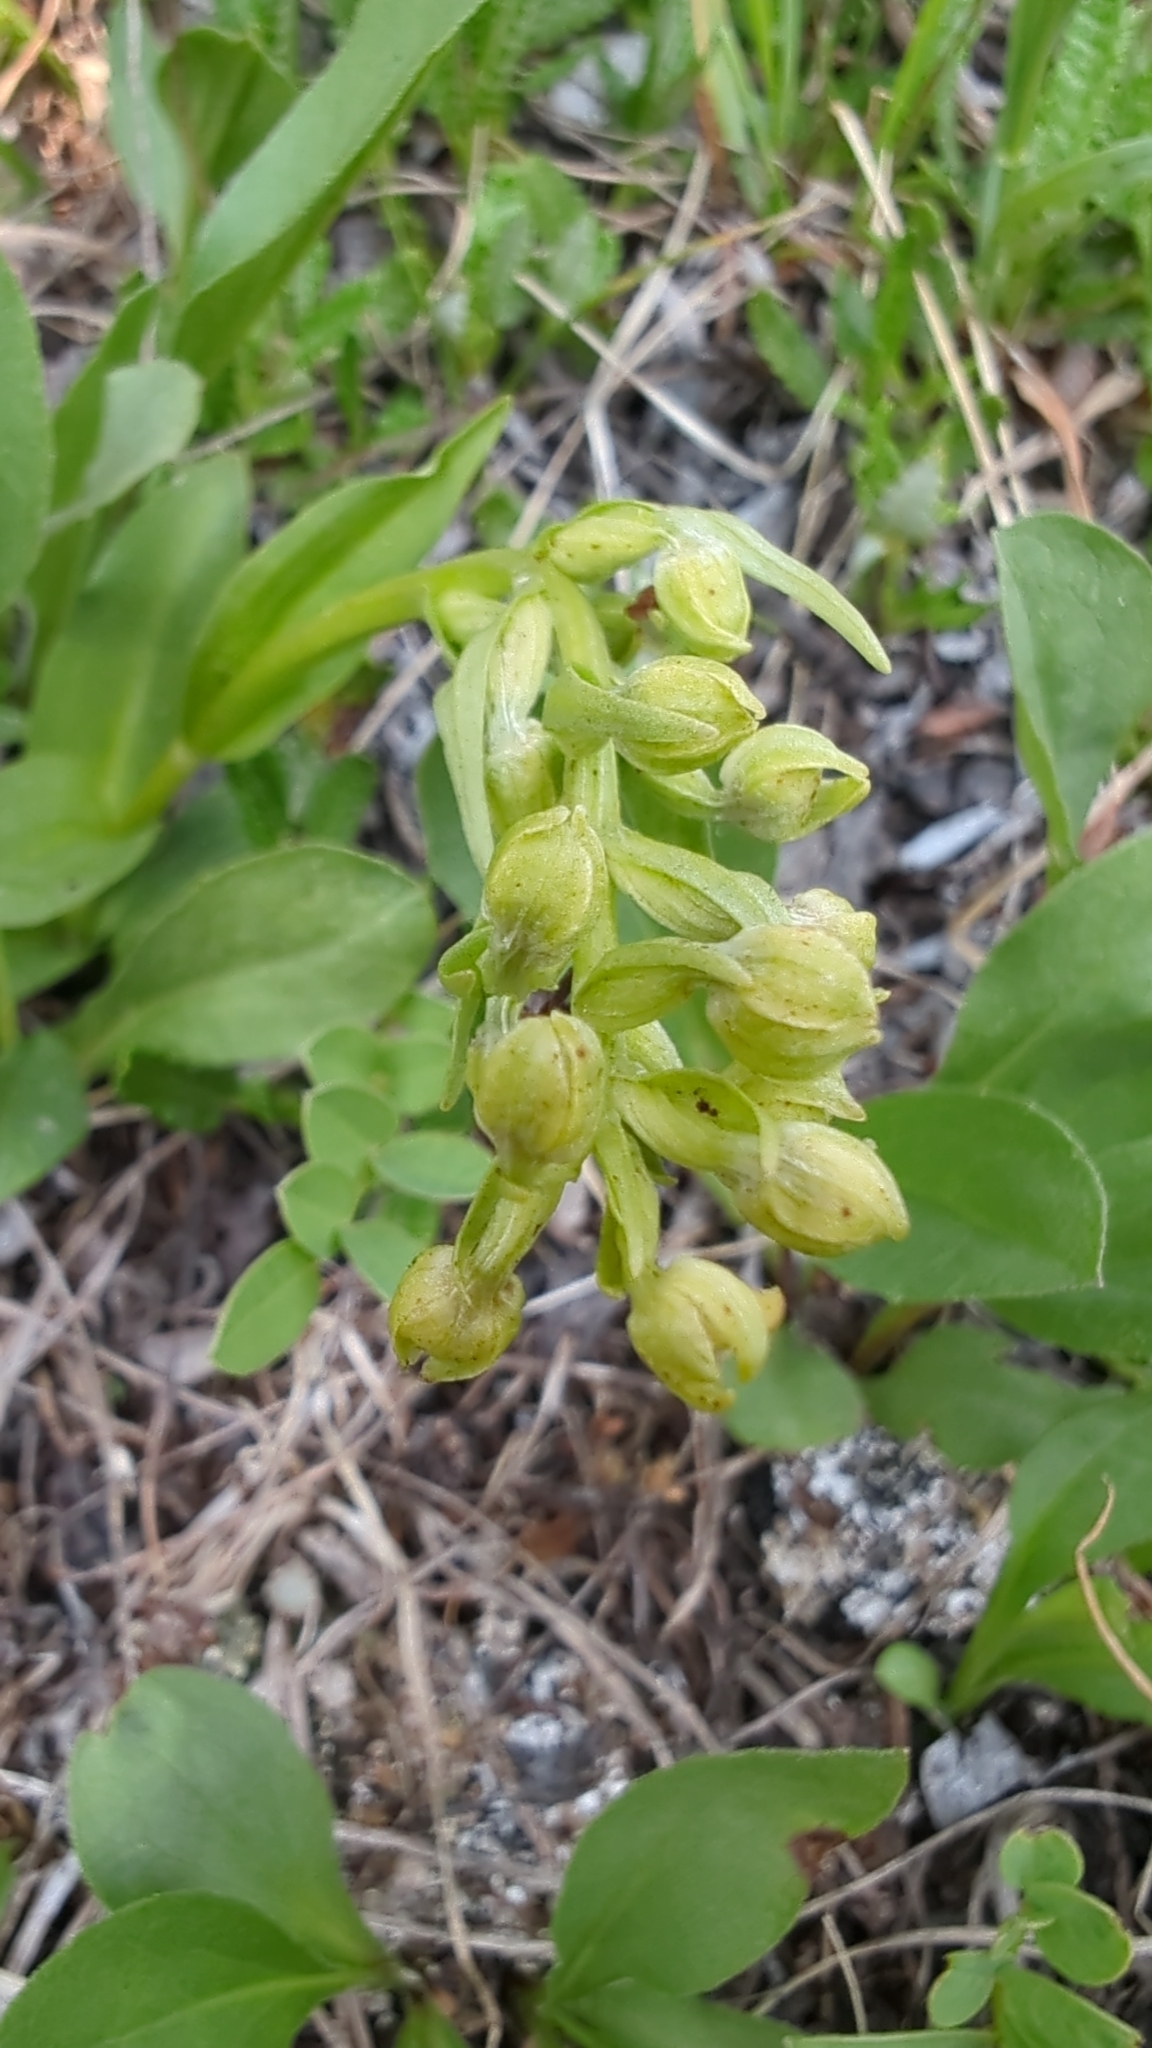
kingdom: Plantae
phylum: Tracheophyta
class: Liliopsida
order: Asparagales
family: Orchidaceae
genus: Dactylorhiza
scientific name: Dactylorhiza viridis
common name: Longbract frog orchid
